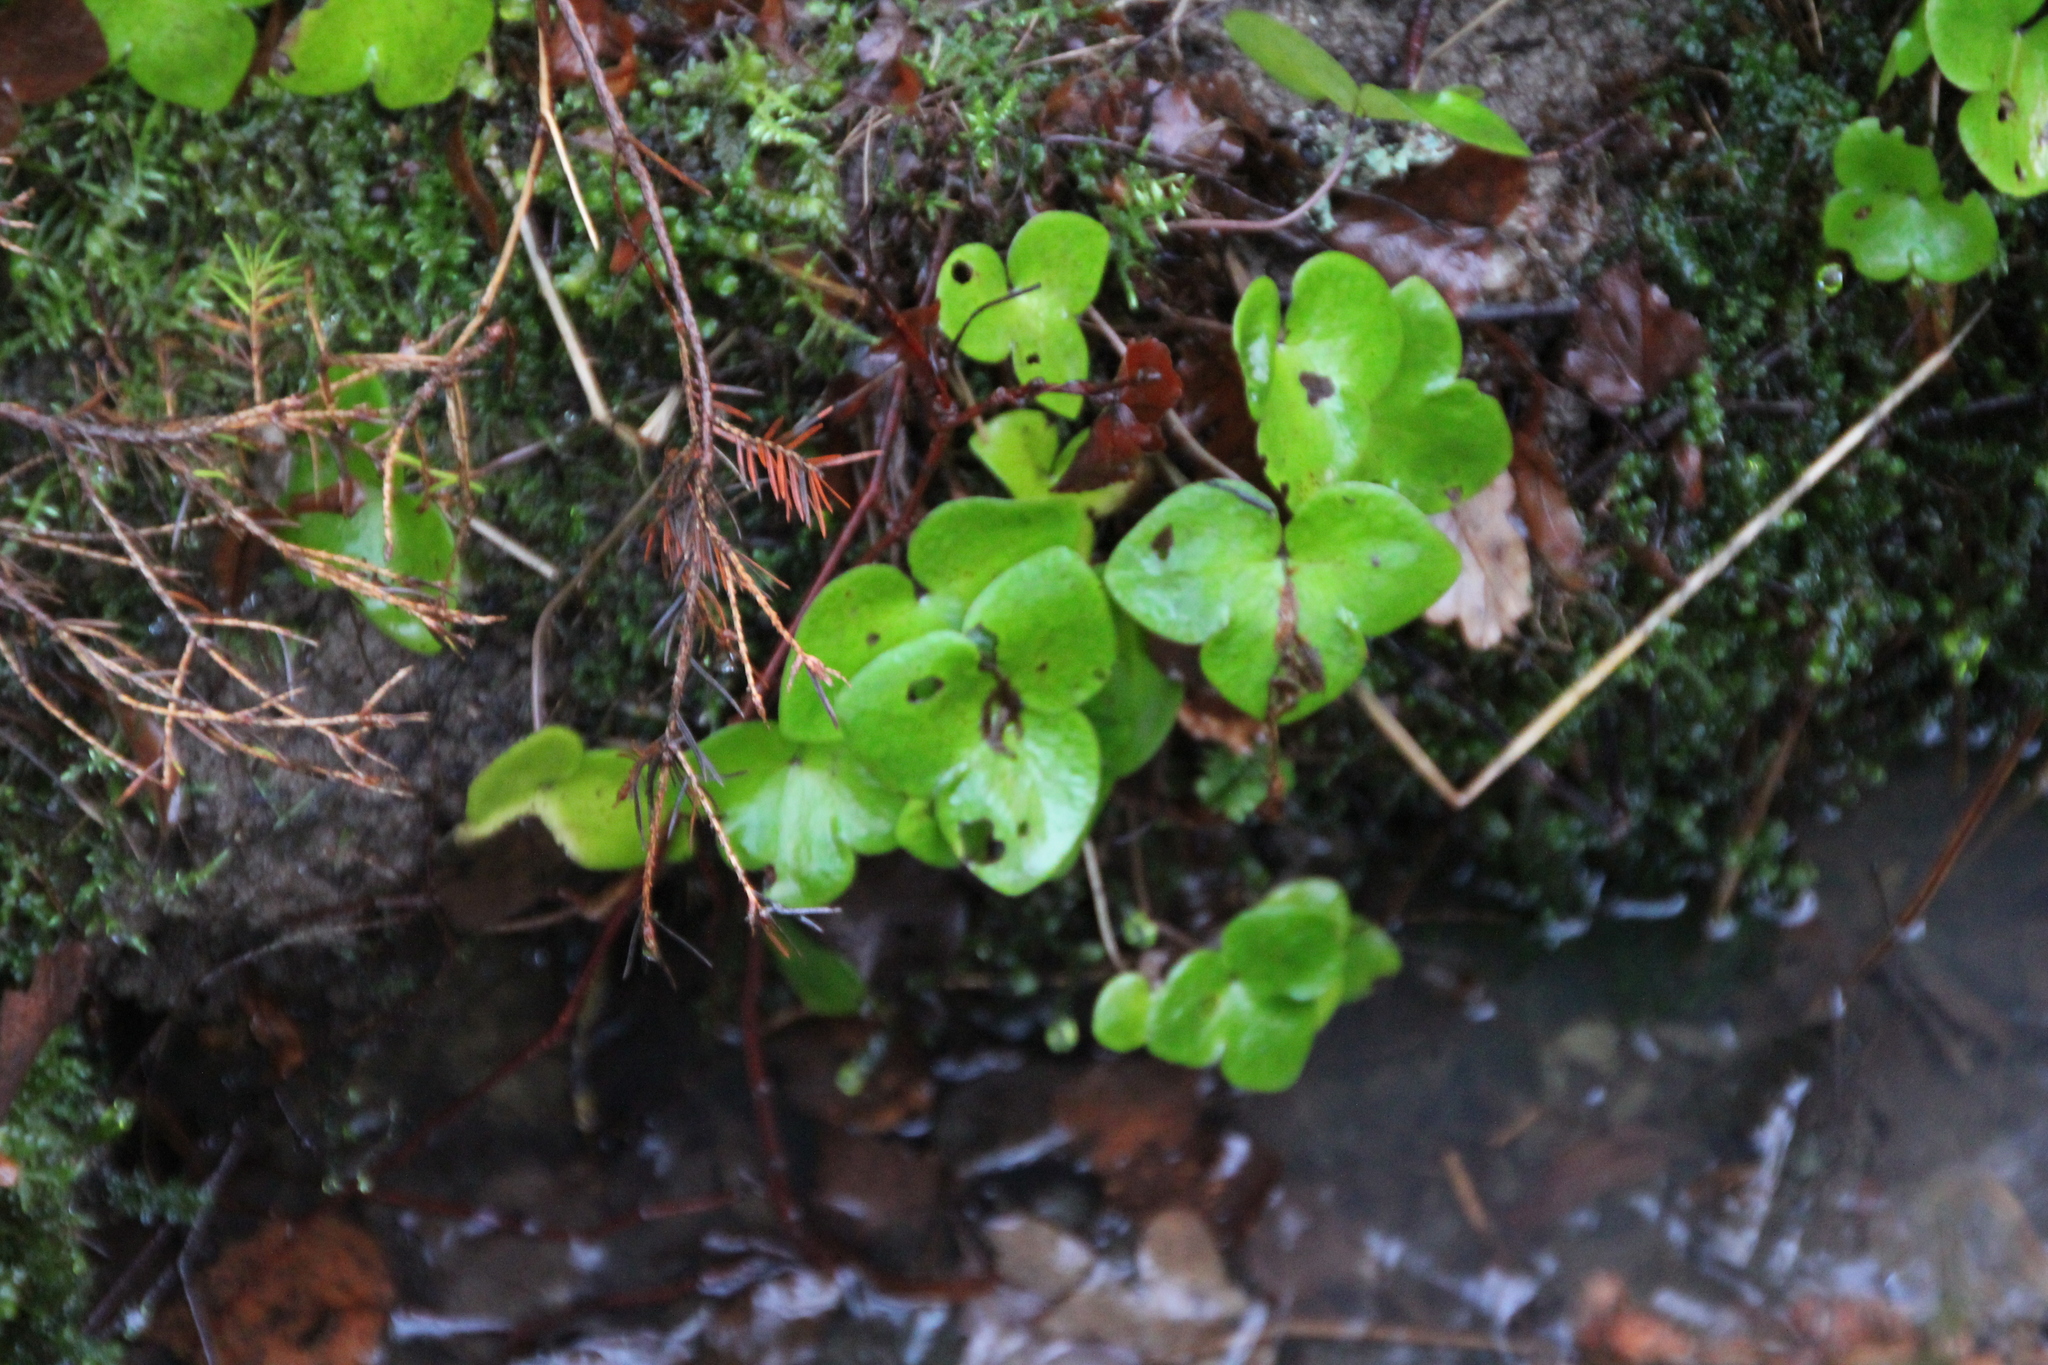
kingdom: Plantae
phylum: Tracheophyta
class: Magnoliopsida
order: Ranunculales
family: Ranunculaceae
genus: Hepatica
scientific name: Hepatica nobilis
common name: Liverleaf
